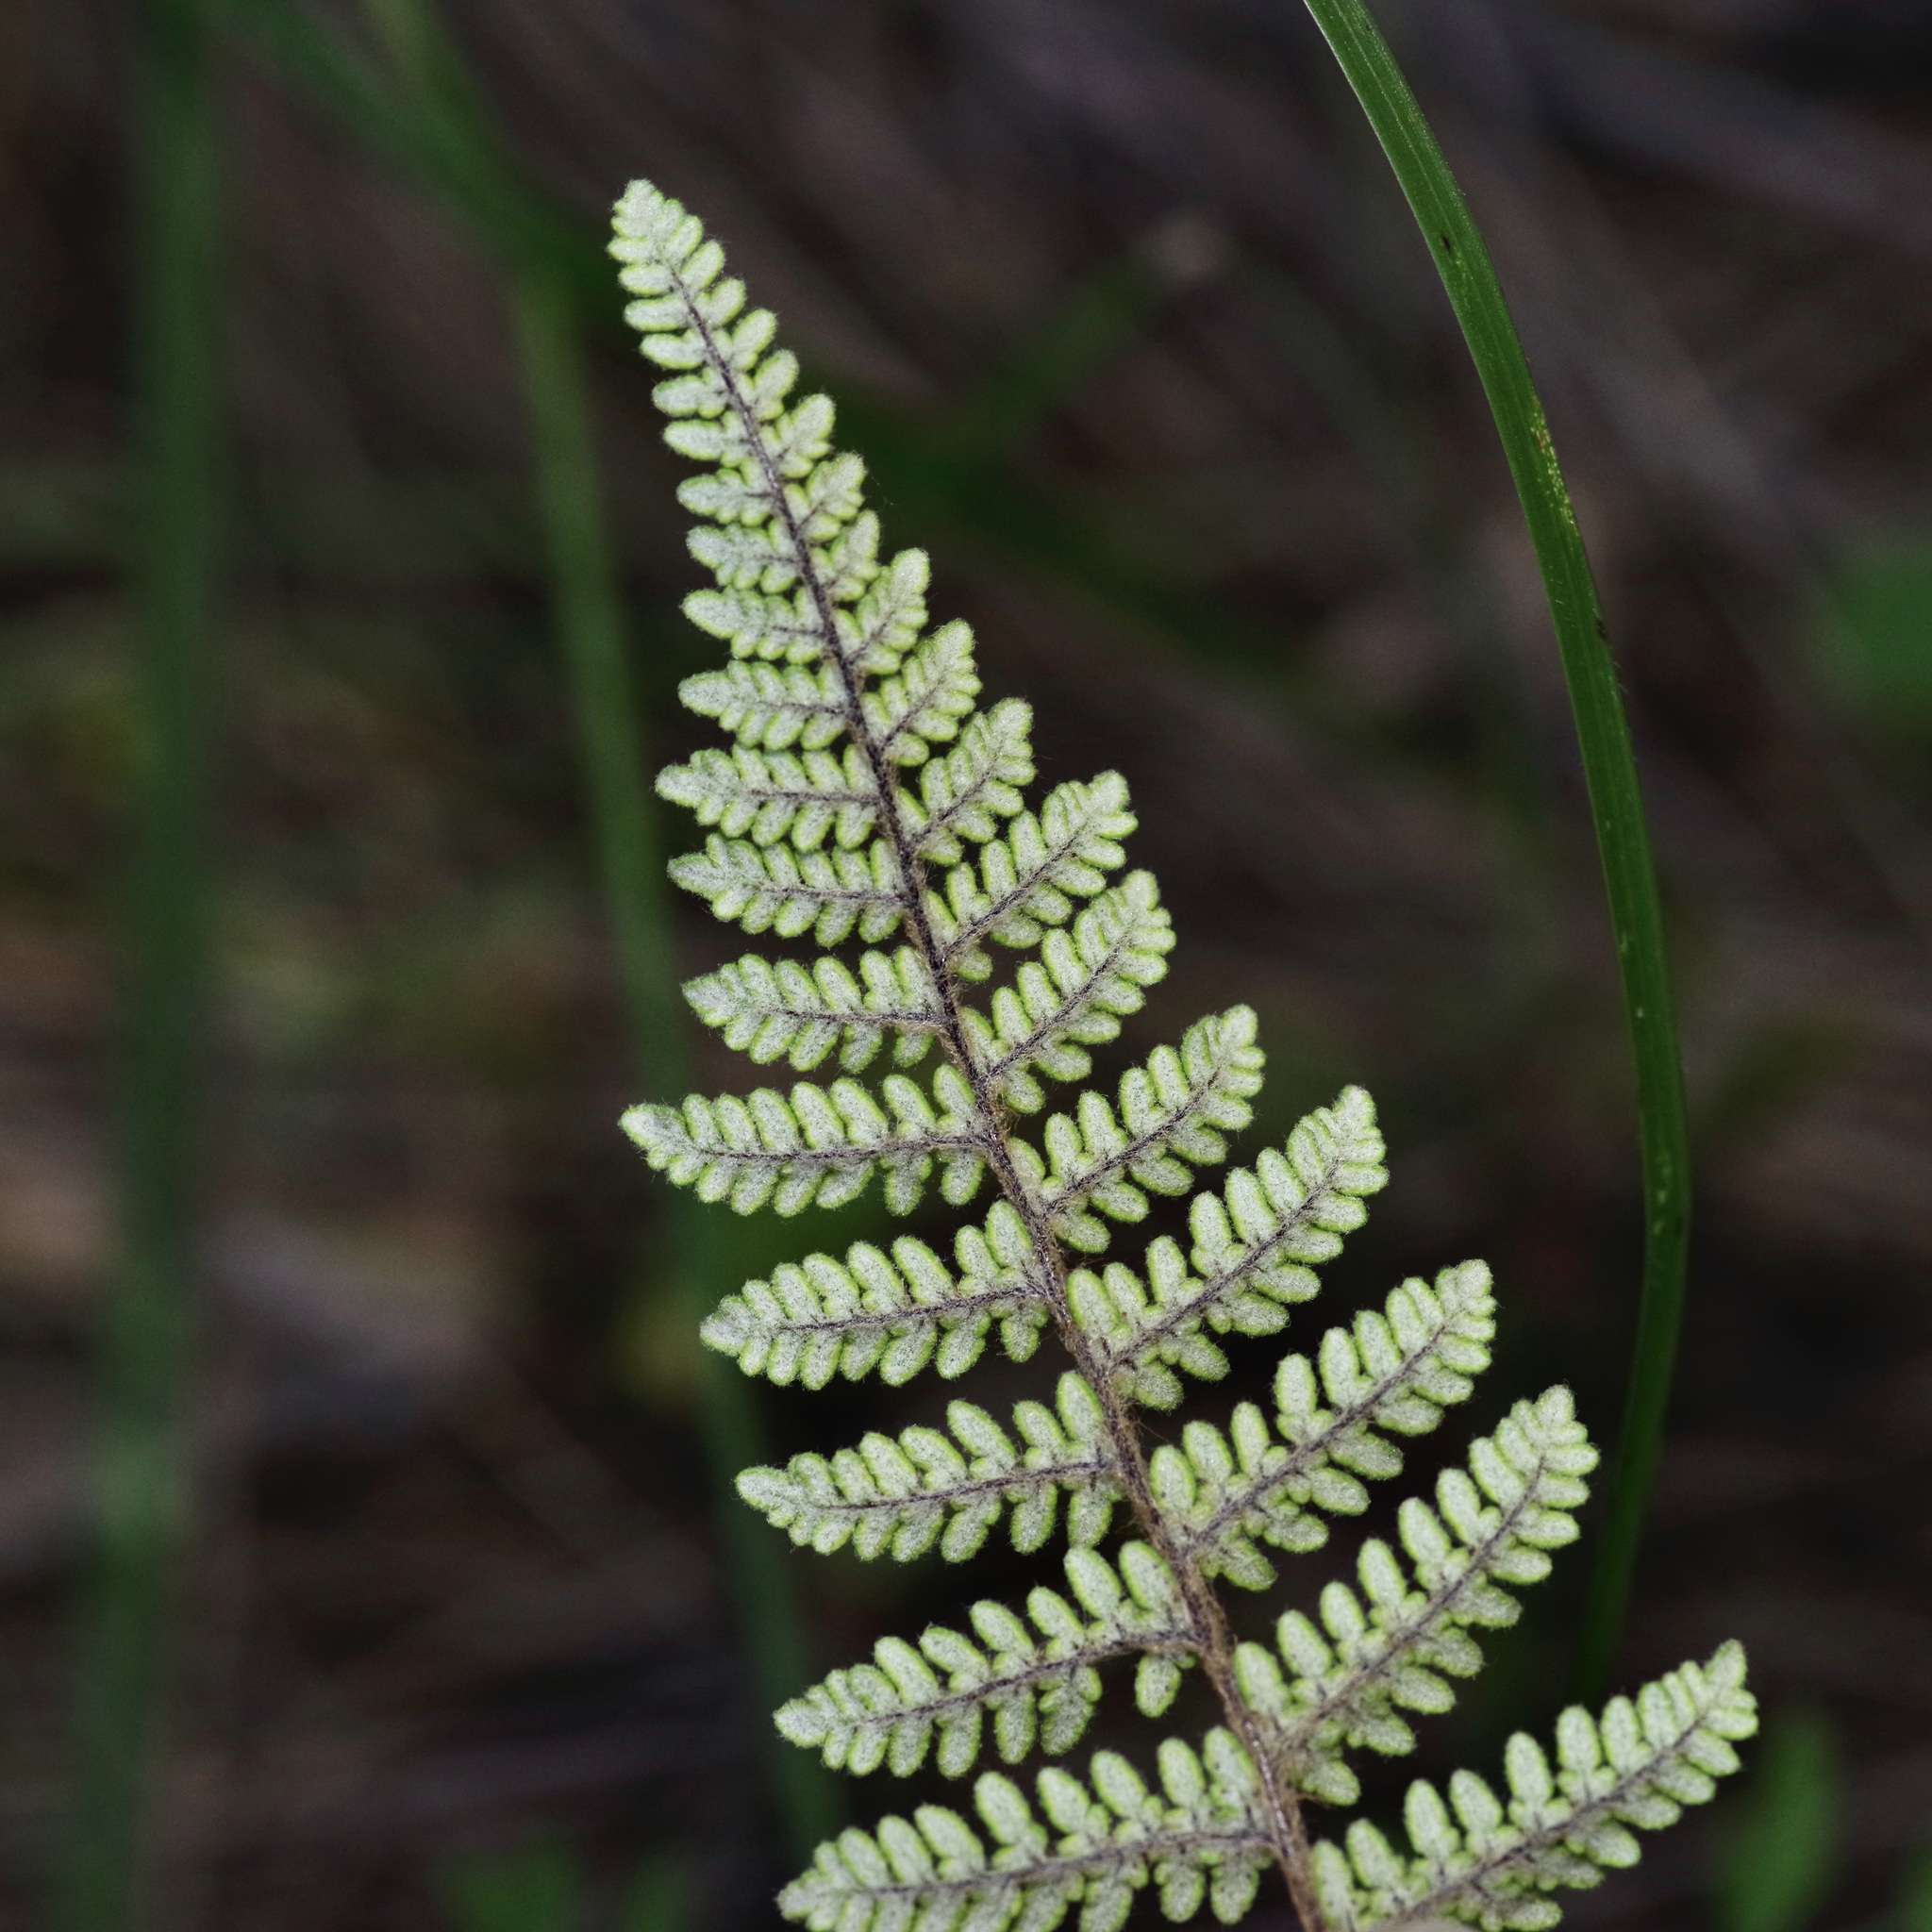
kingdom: Plantae
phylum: Tracheophyta
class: Polypodiopsida
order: Polypodiales
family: Pteridaceae
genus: Myriopteris
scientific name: Myriopteris tomentosa
